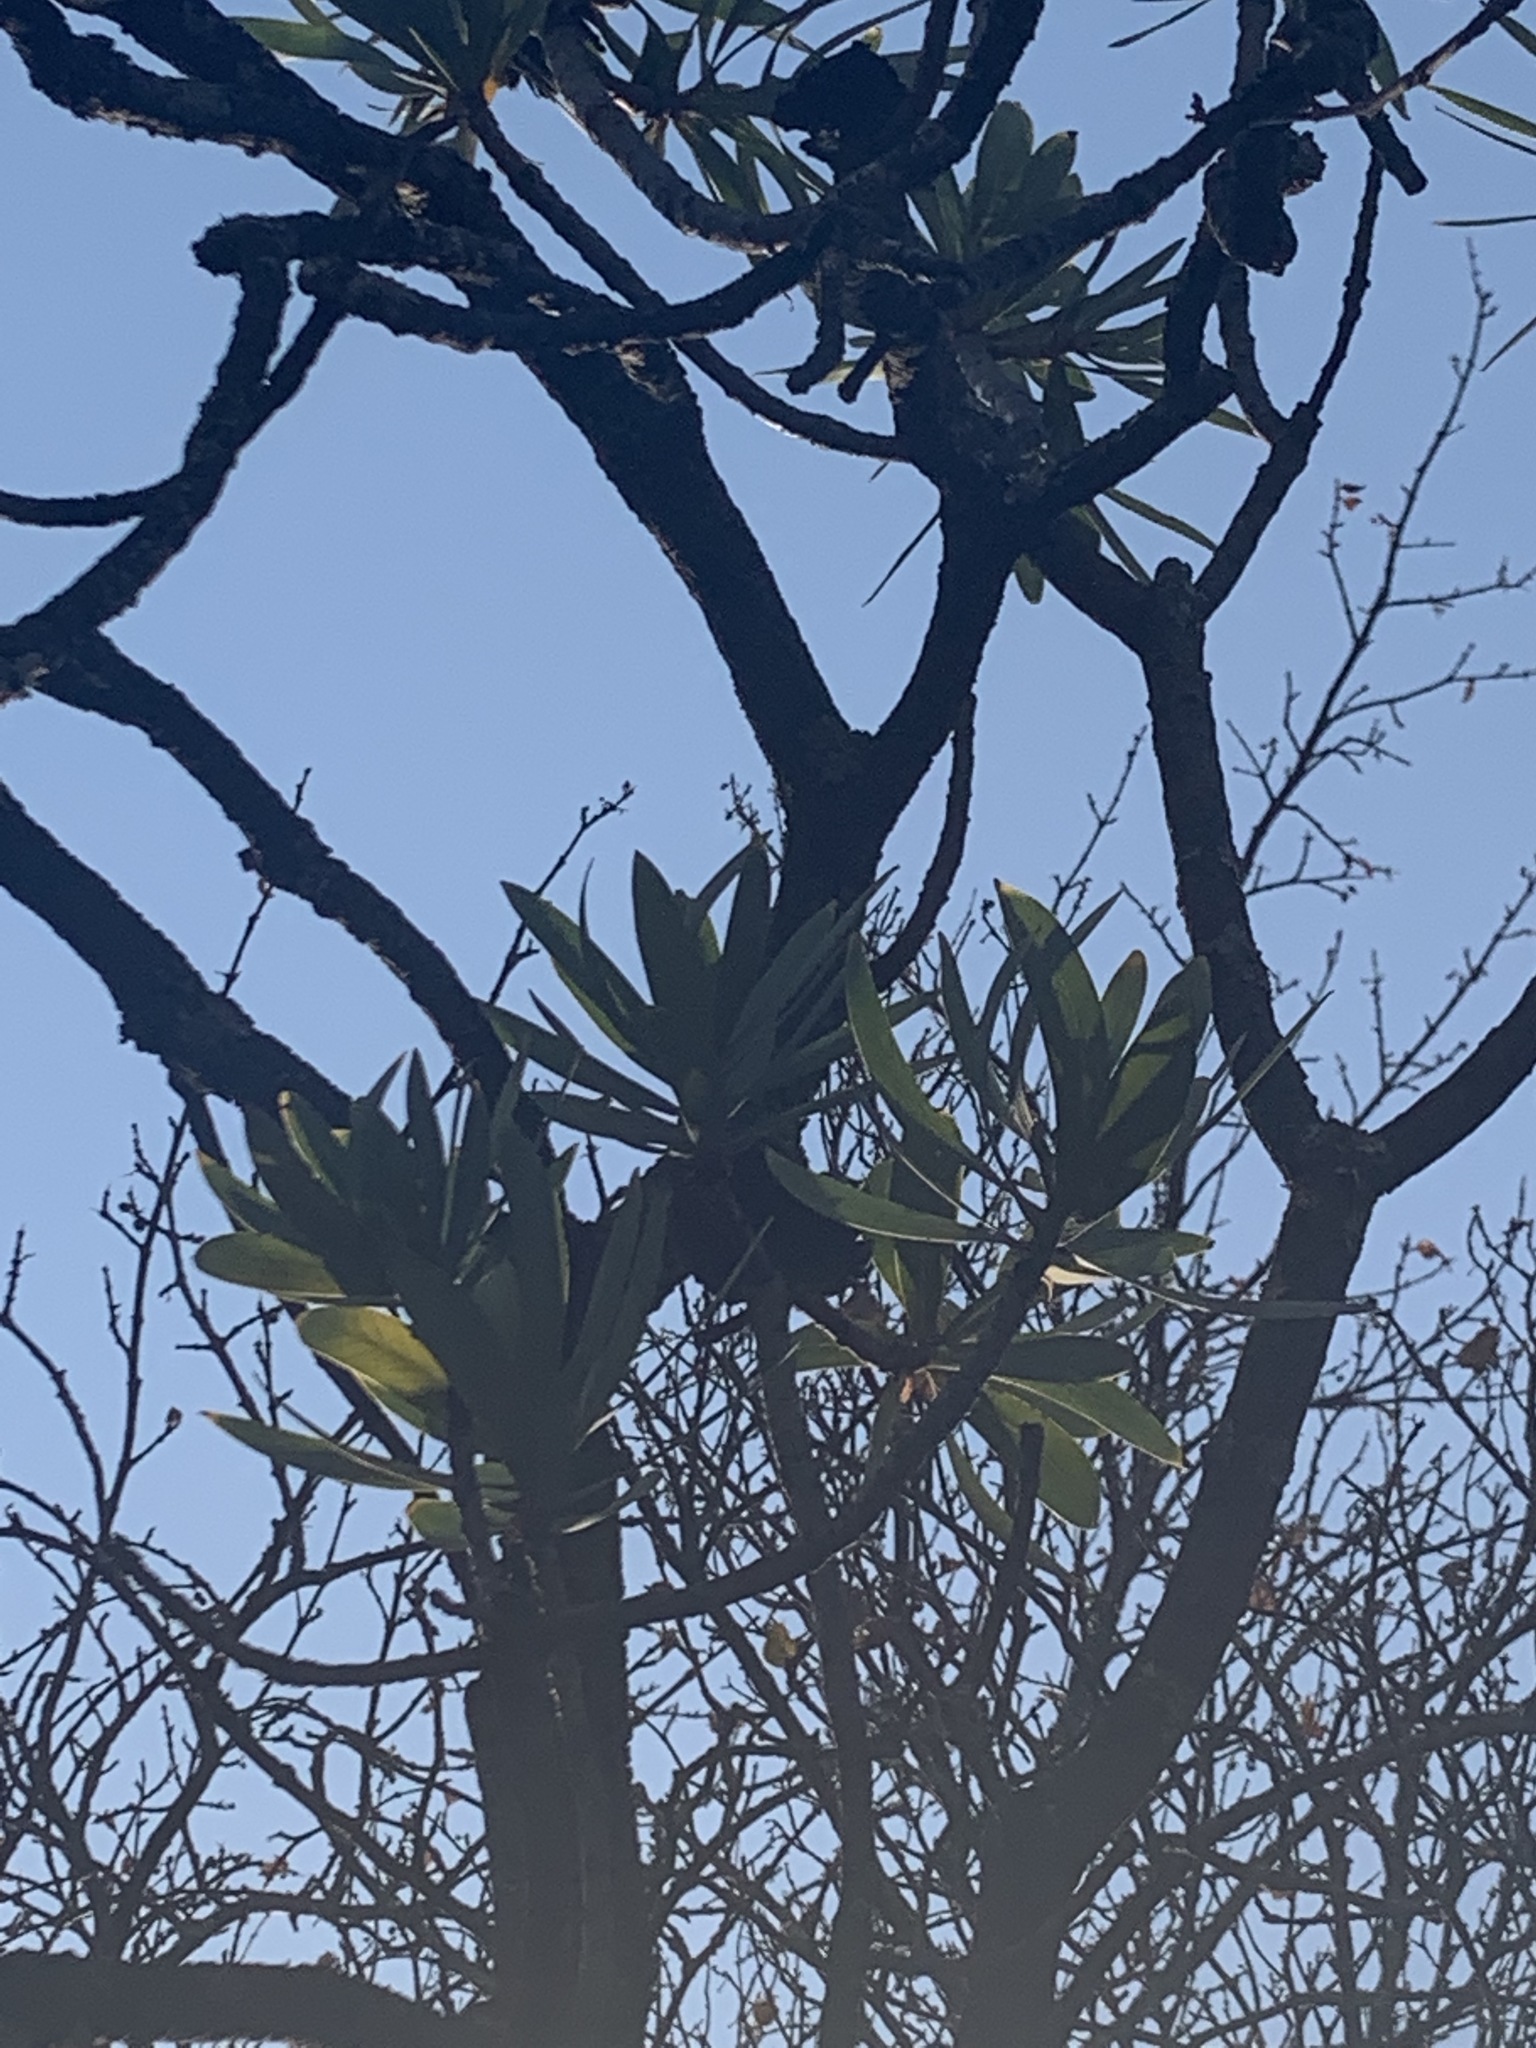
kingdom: Plantae
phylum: Tracheophyta
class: Magnoliopsida
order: Proteales
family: Proteaceae
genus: Protea
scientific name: Protea caffra
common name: Common sugarbush
